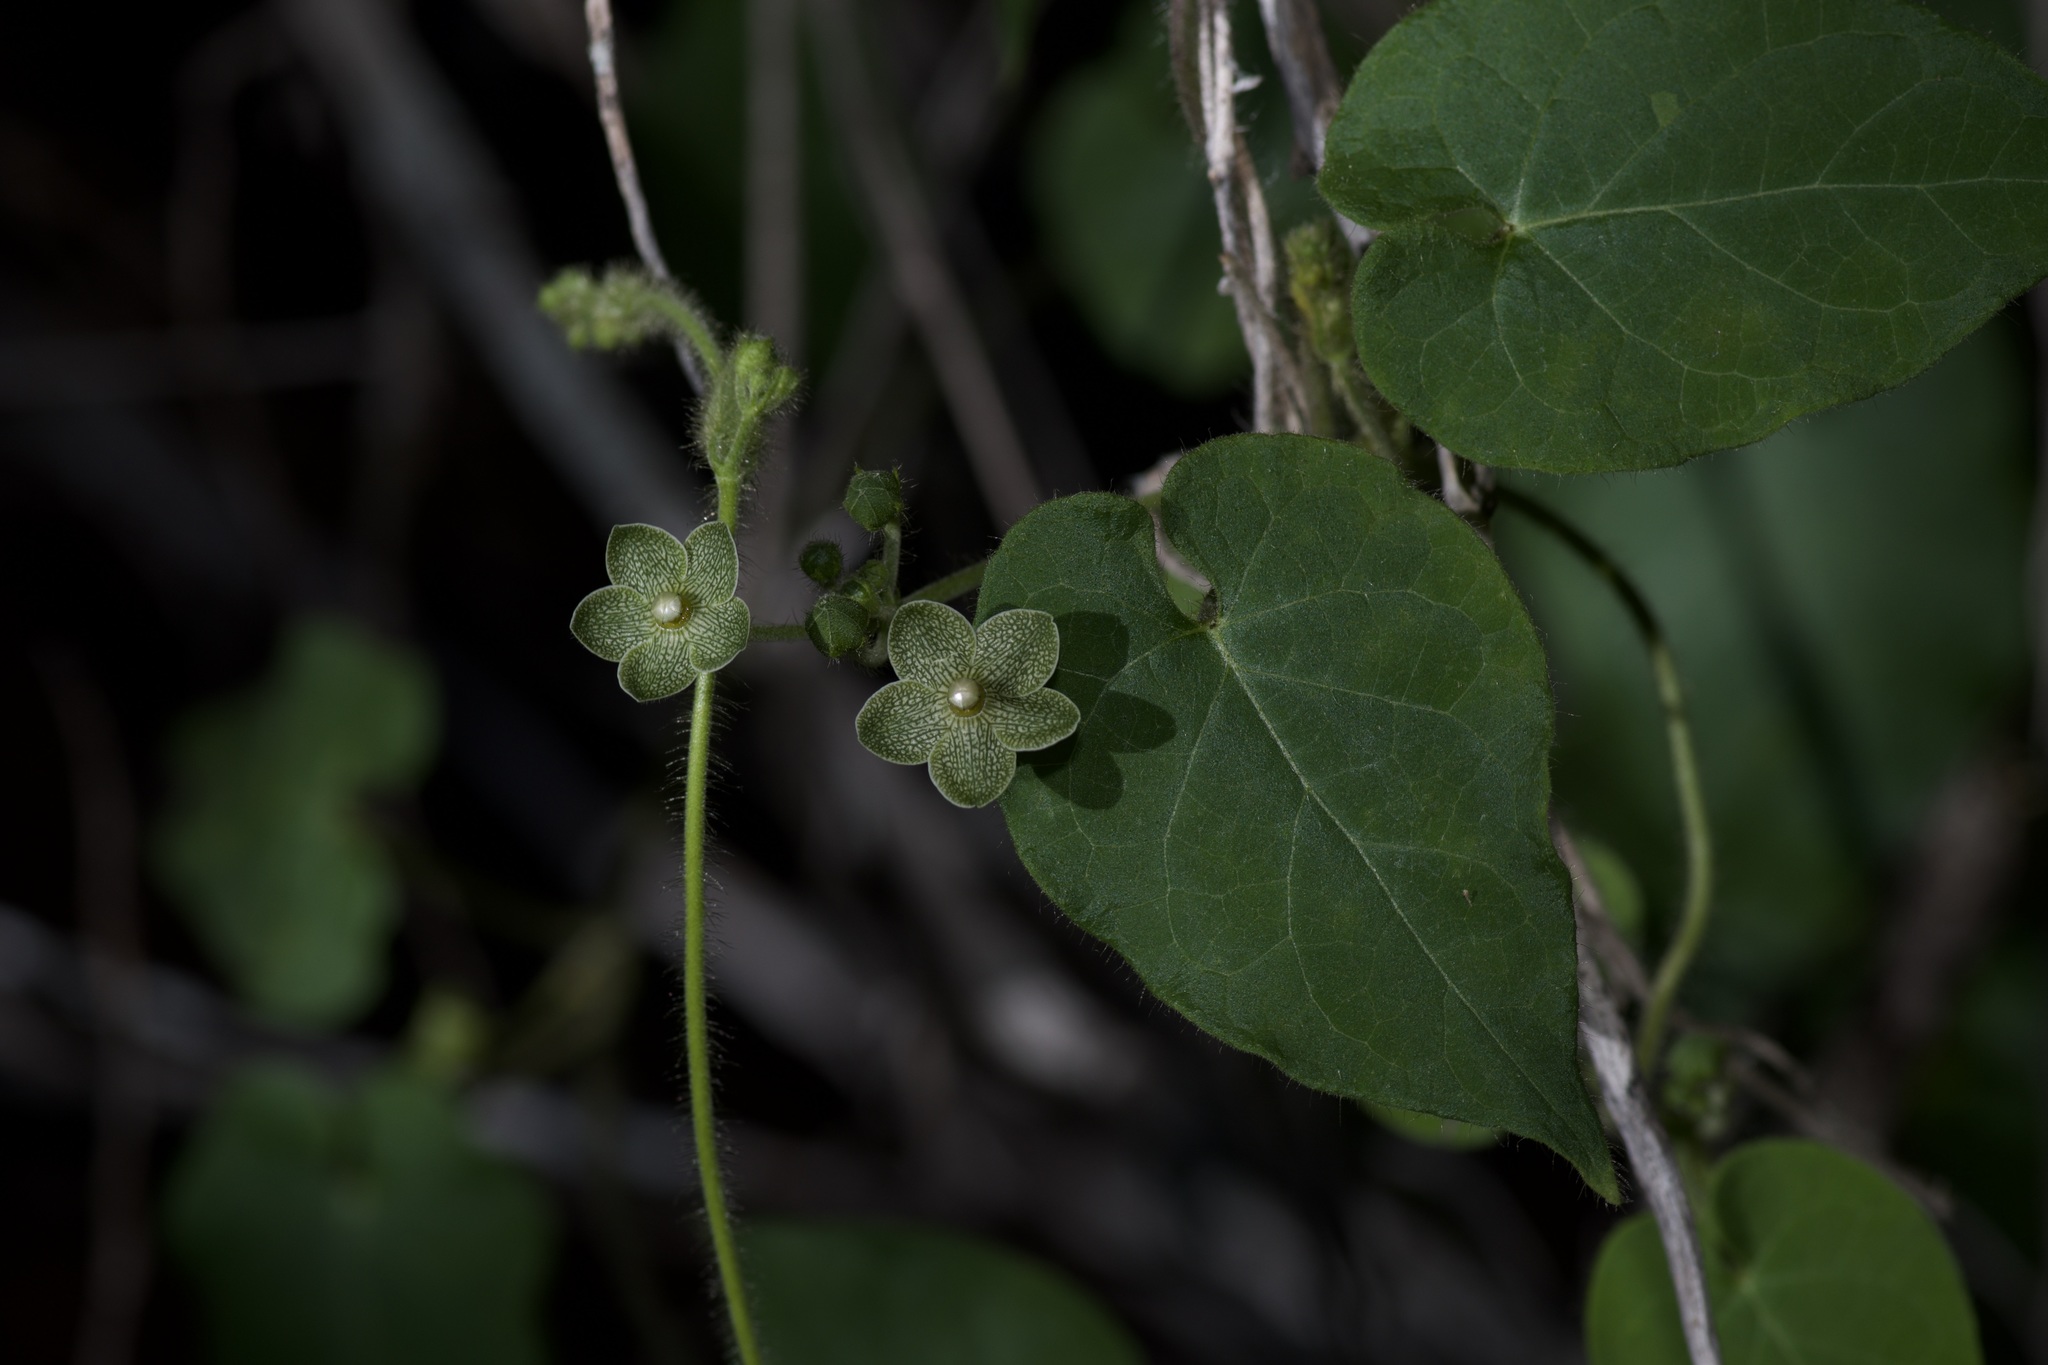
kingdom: Plantae
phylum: Tracheophyta
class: Magnoliopsida
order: Gentianales
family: Apocynaceae
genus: Dictyanthus
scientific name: Dictyanthus reticulatus
